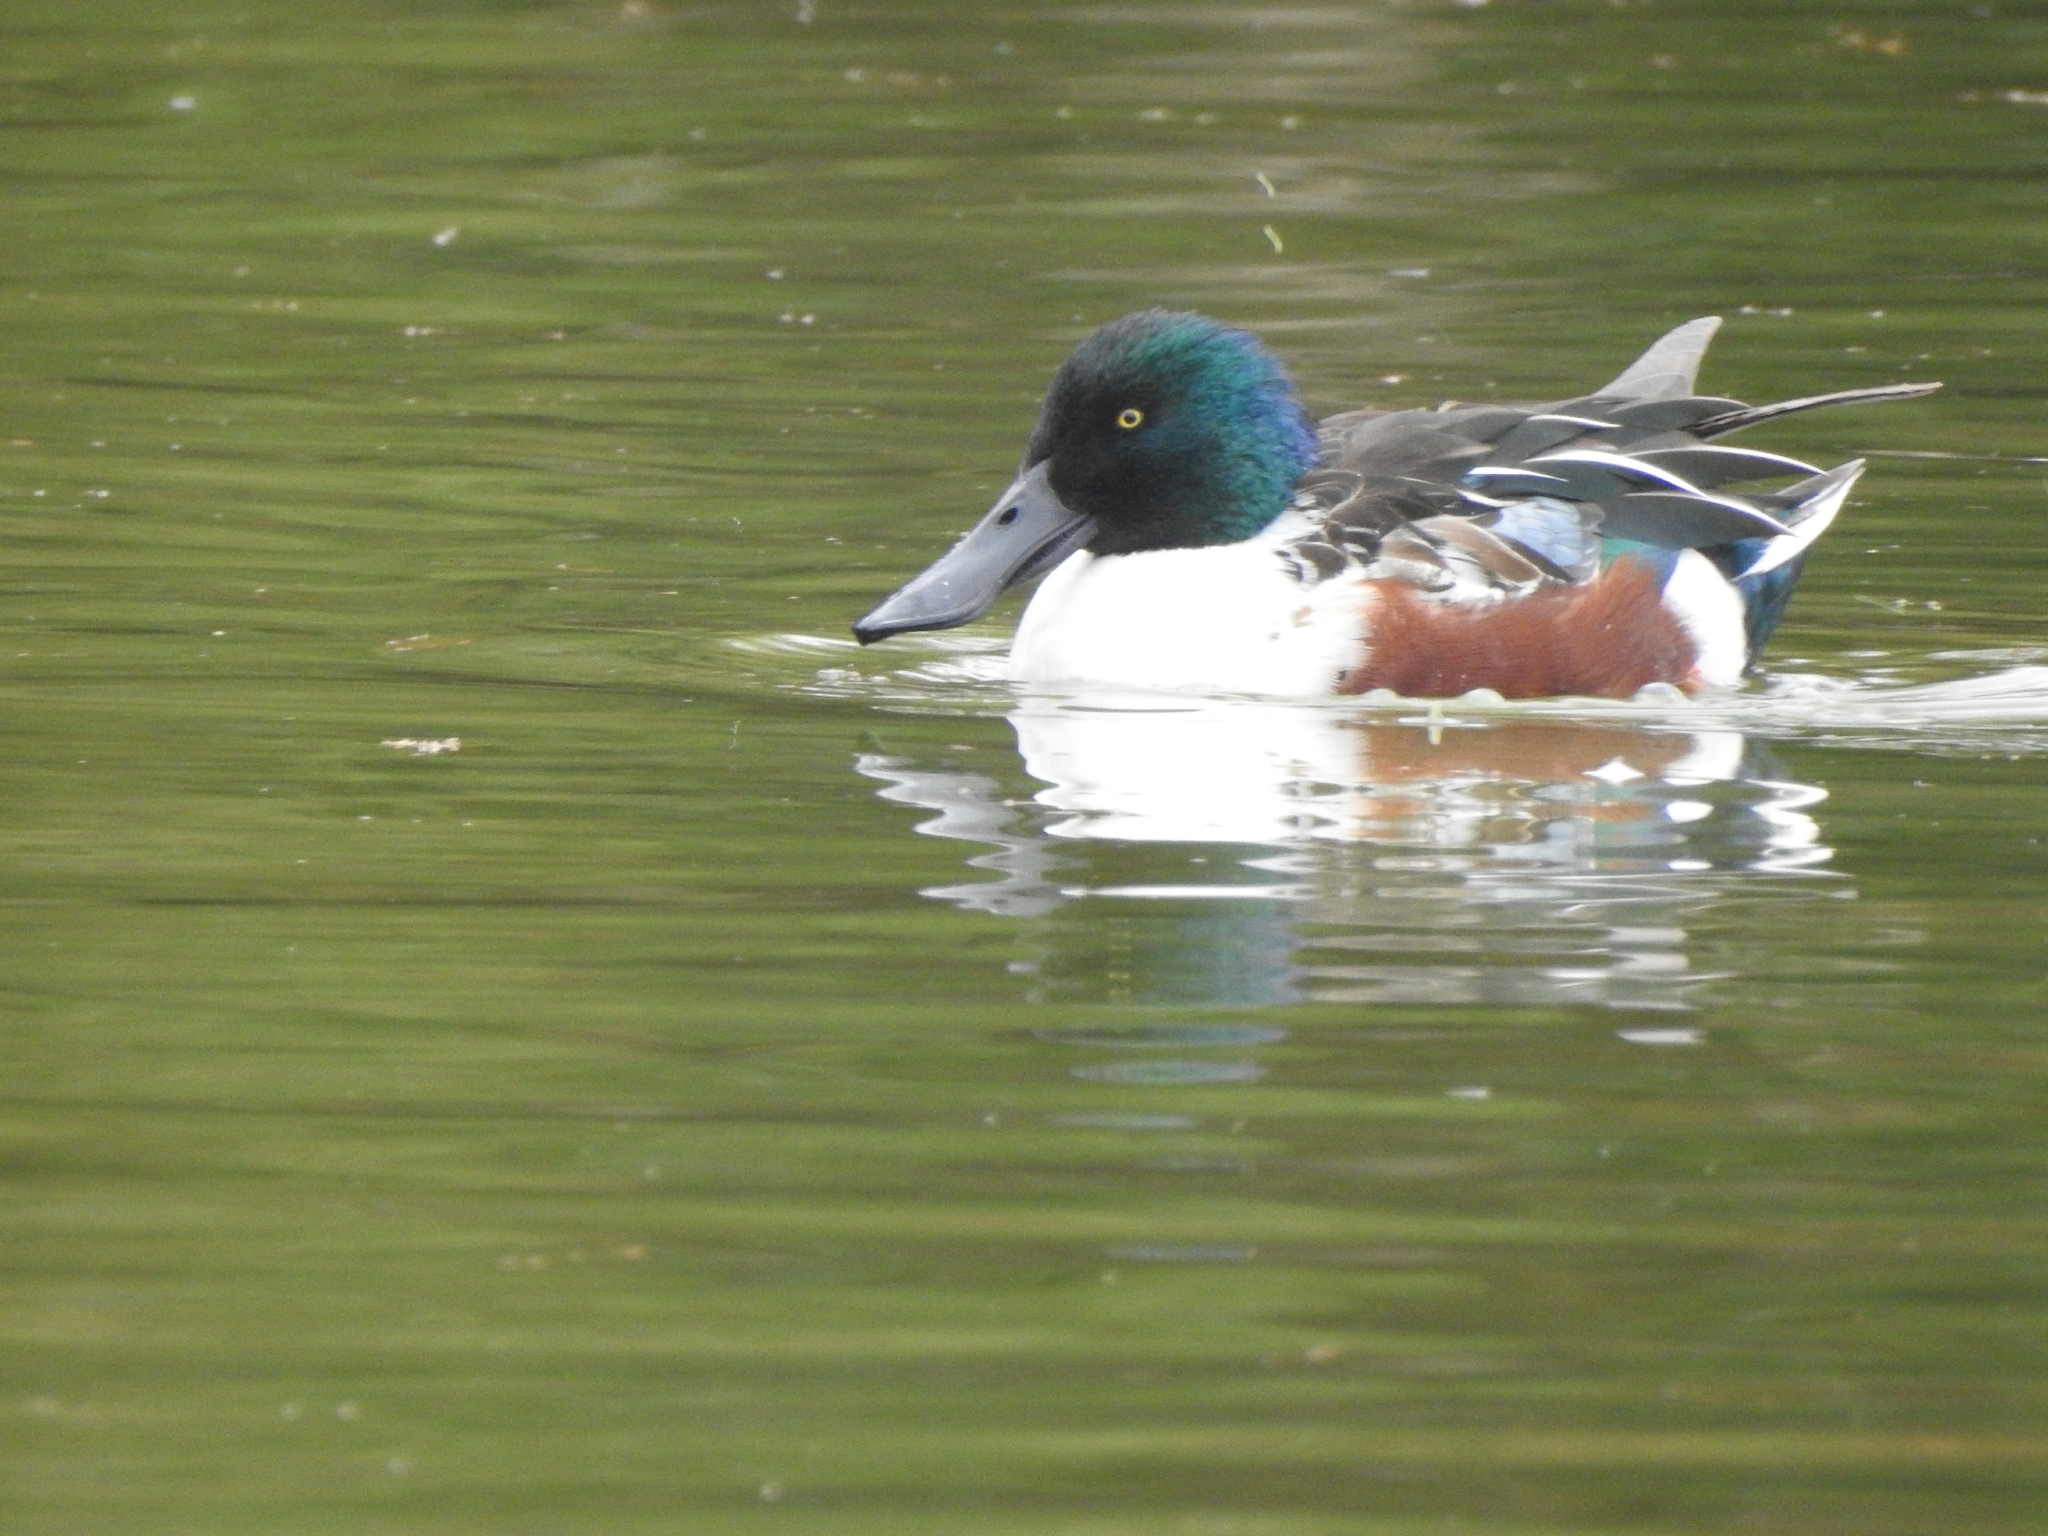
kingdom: Animalia
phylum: Chordata
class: Aves
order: Anseriformes
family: Anatidae
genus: Spatula
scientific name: Spatula clypeata
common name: Northern shoveler
